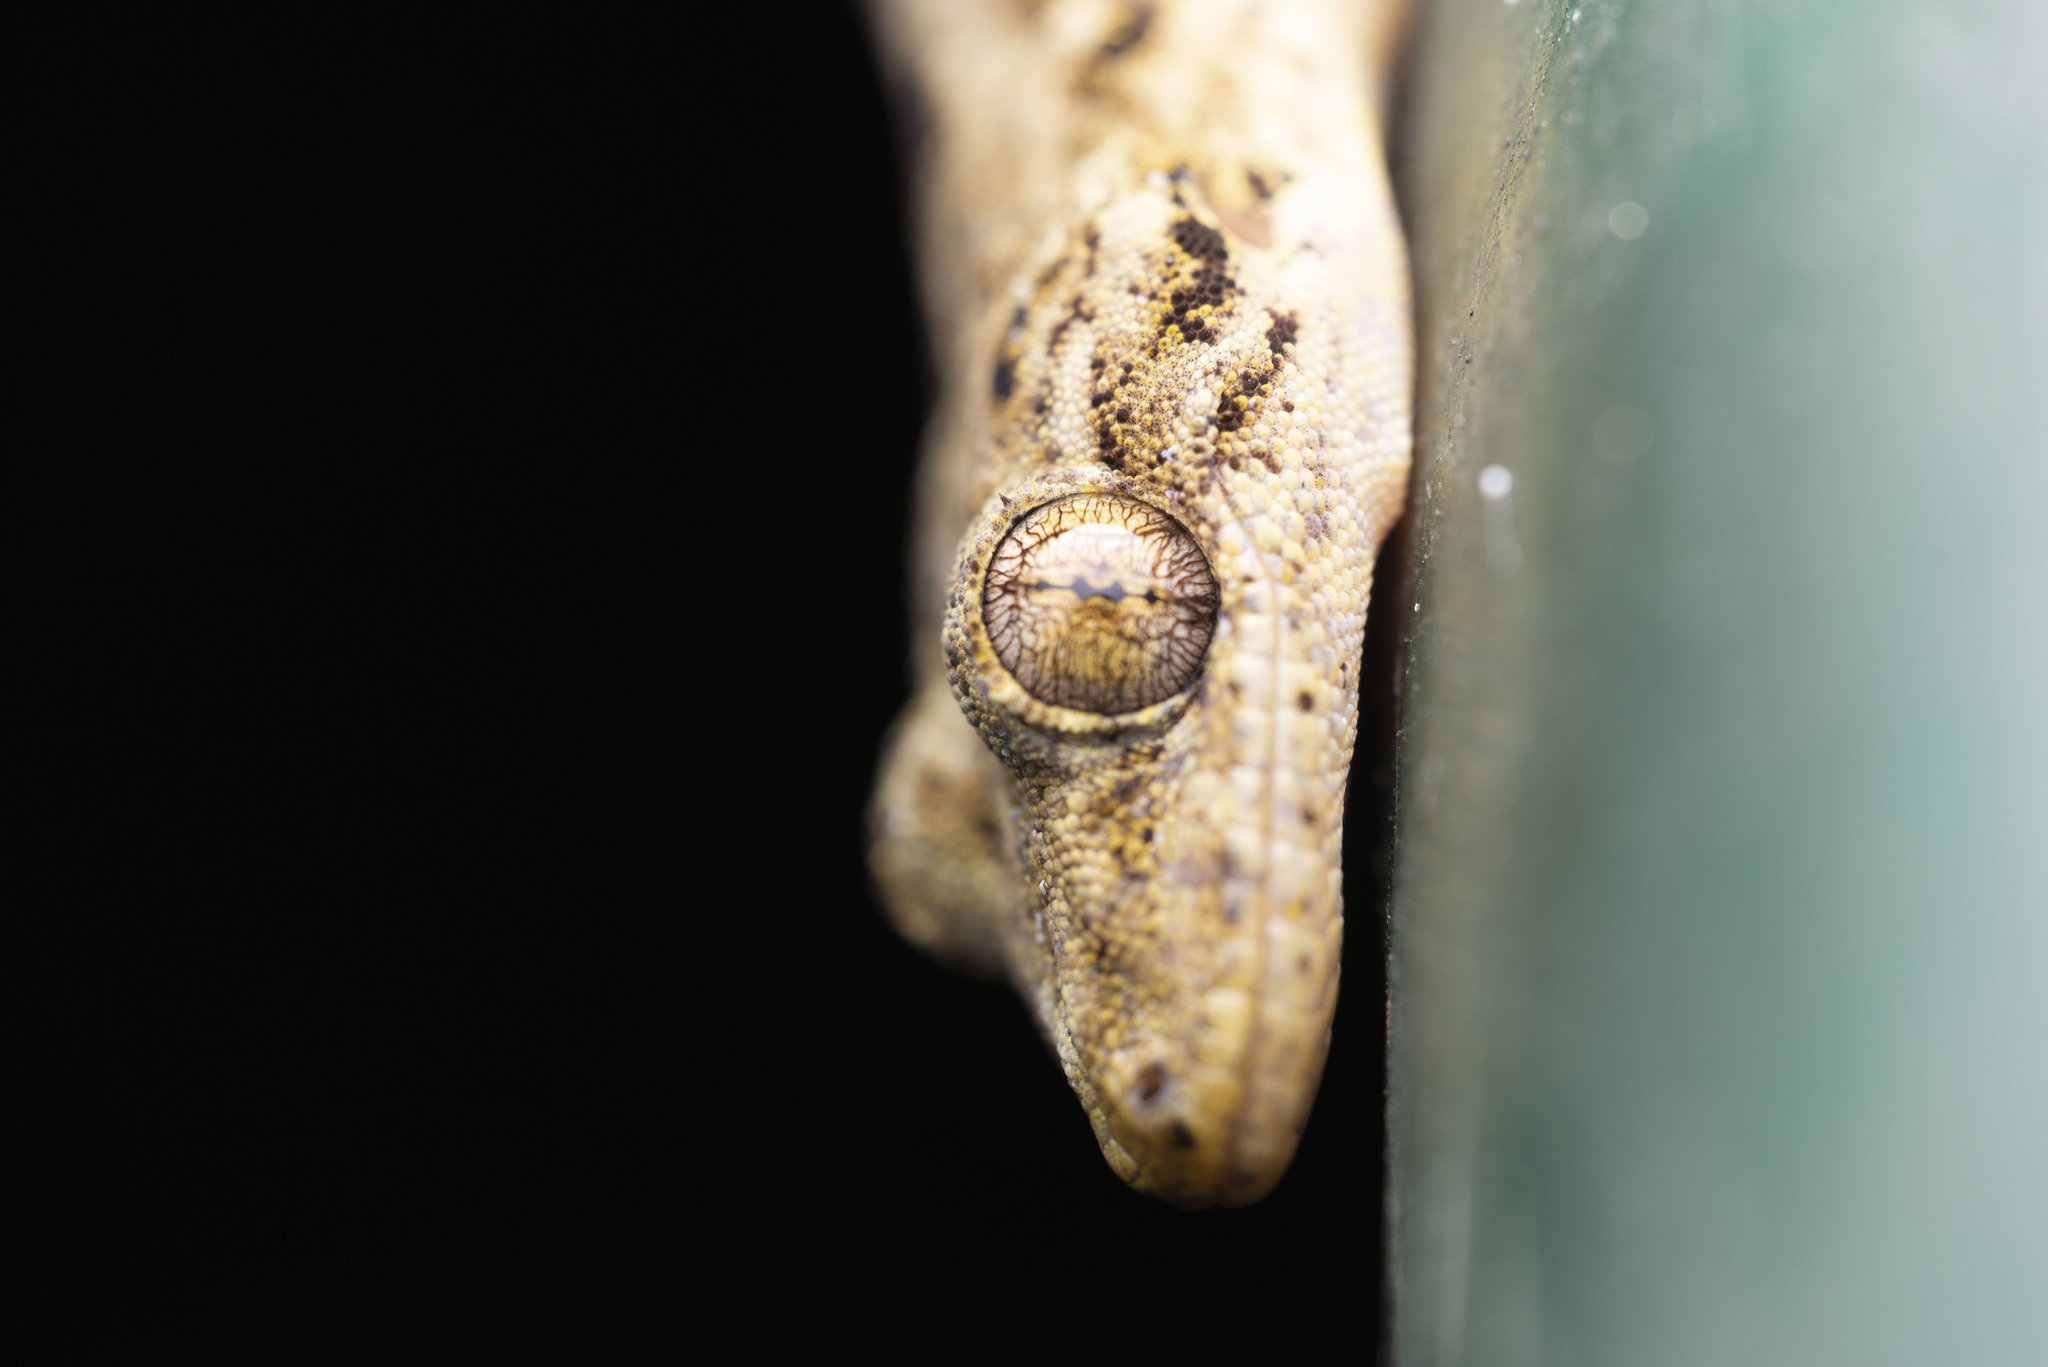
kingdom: Animalia
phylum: Chordata
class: Squamata
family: Gekkonidae
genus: Gekko
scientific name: Gekko chinensis
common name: Gray's chinese gecko
